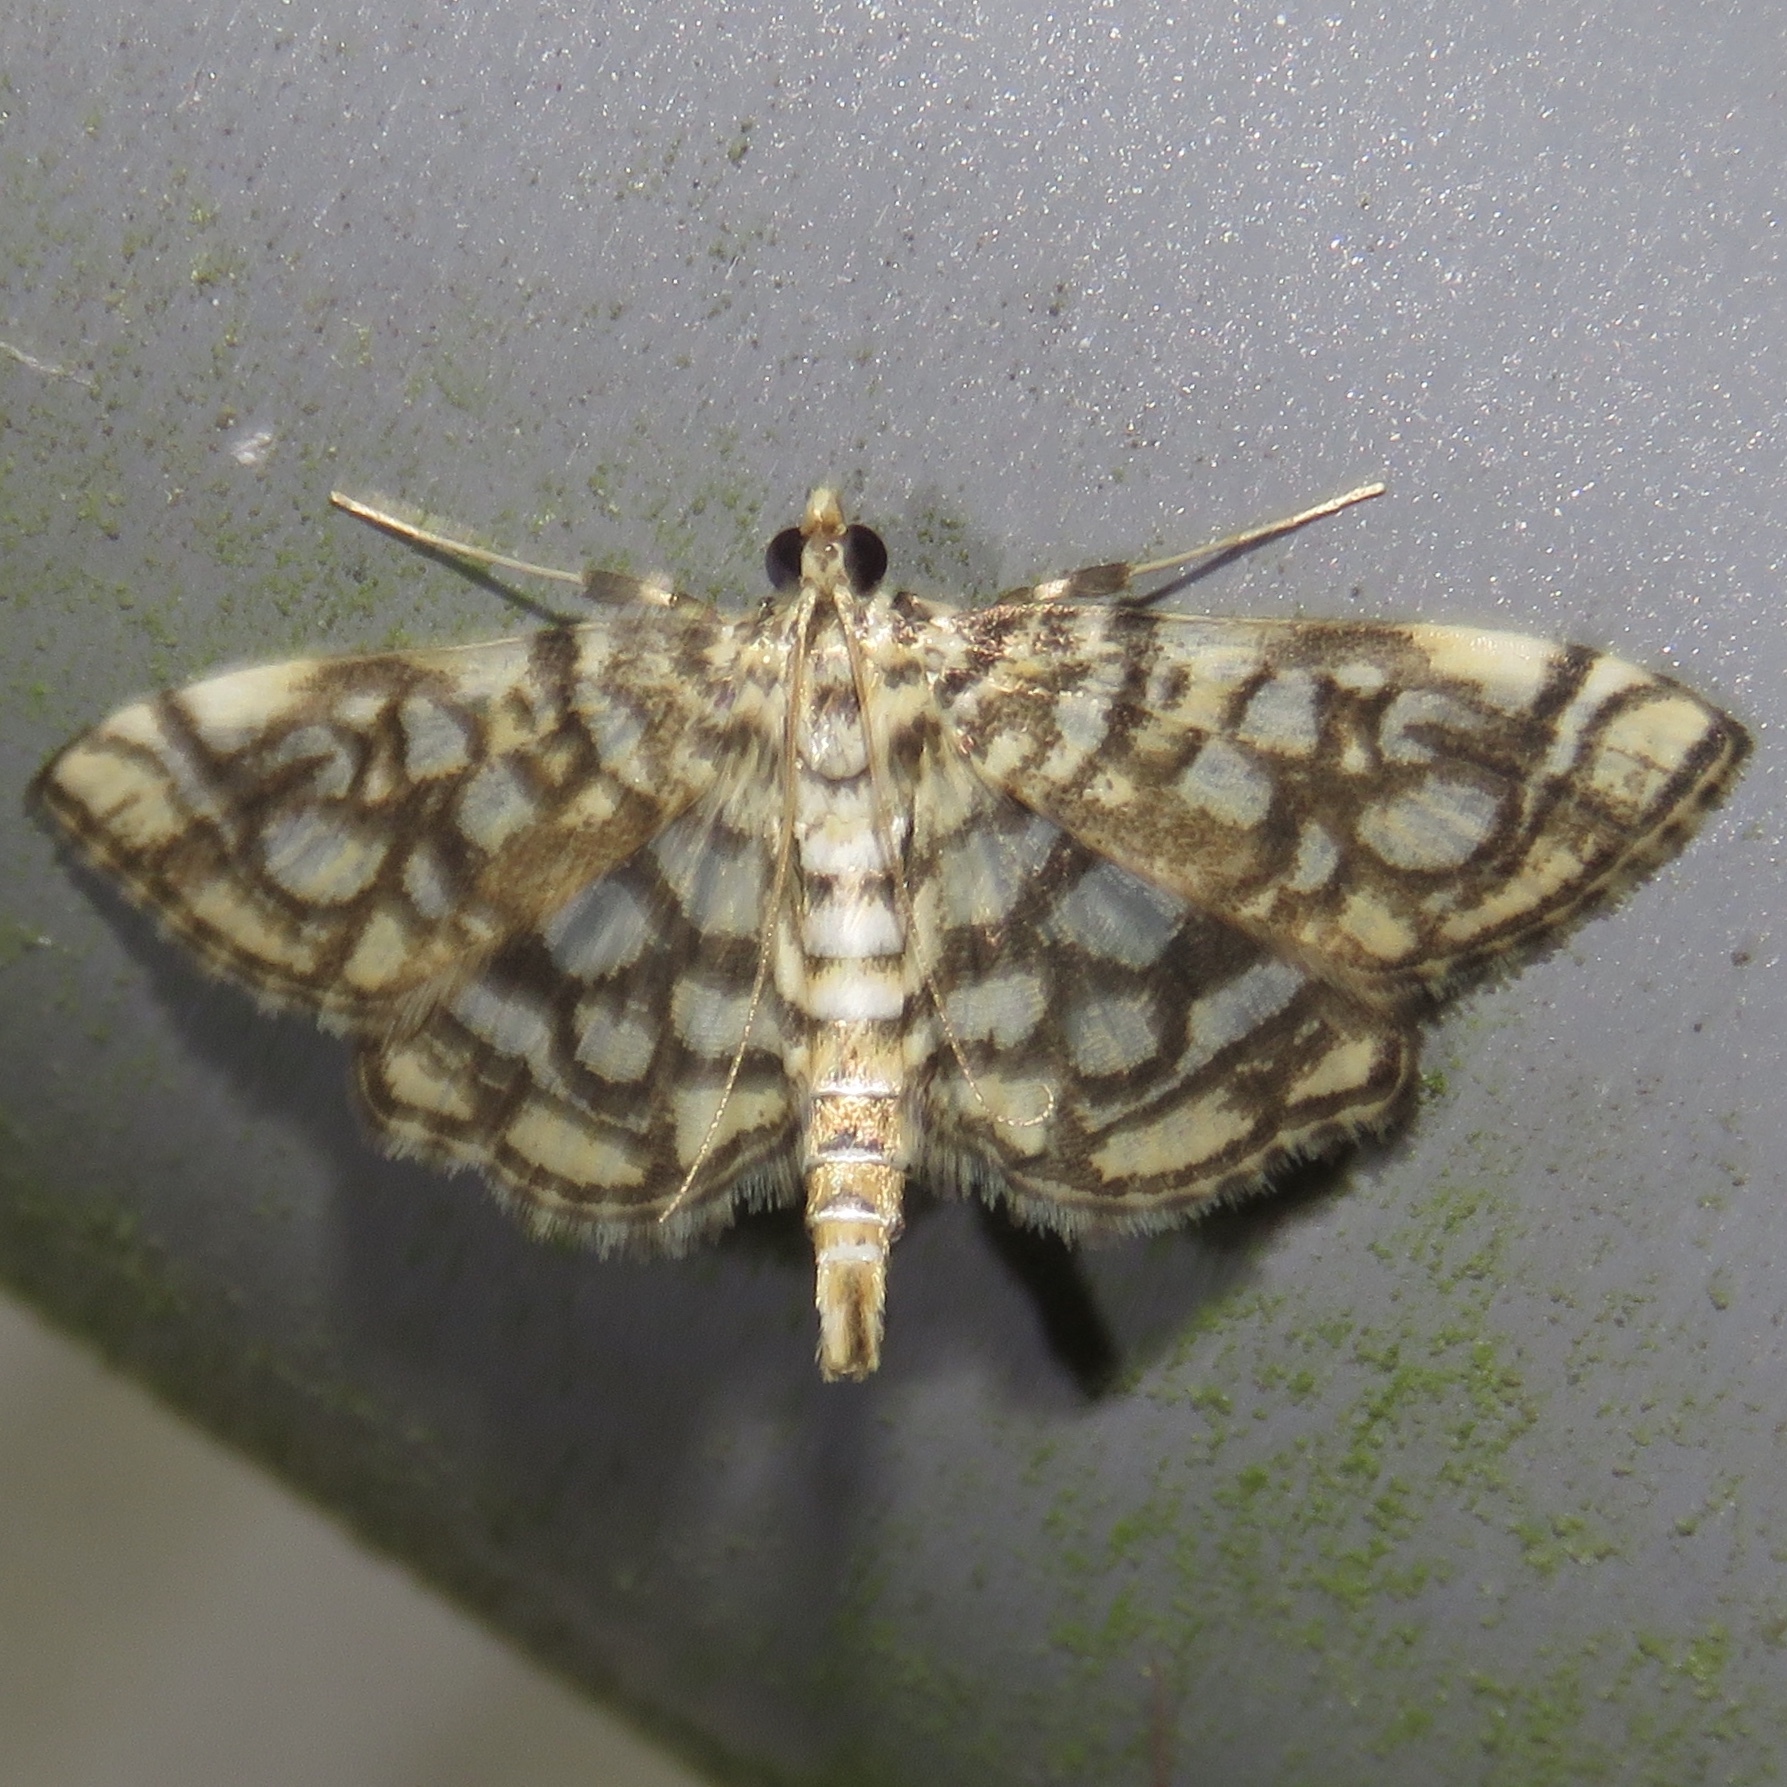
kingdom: Animalia
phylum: Arthropoda
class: Insecta
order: Lepidoptera
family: Crambidae
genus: Lygropia
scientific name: Lygropia rivulalis
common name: Bog lygropia moth
